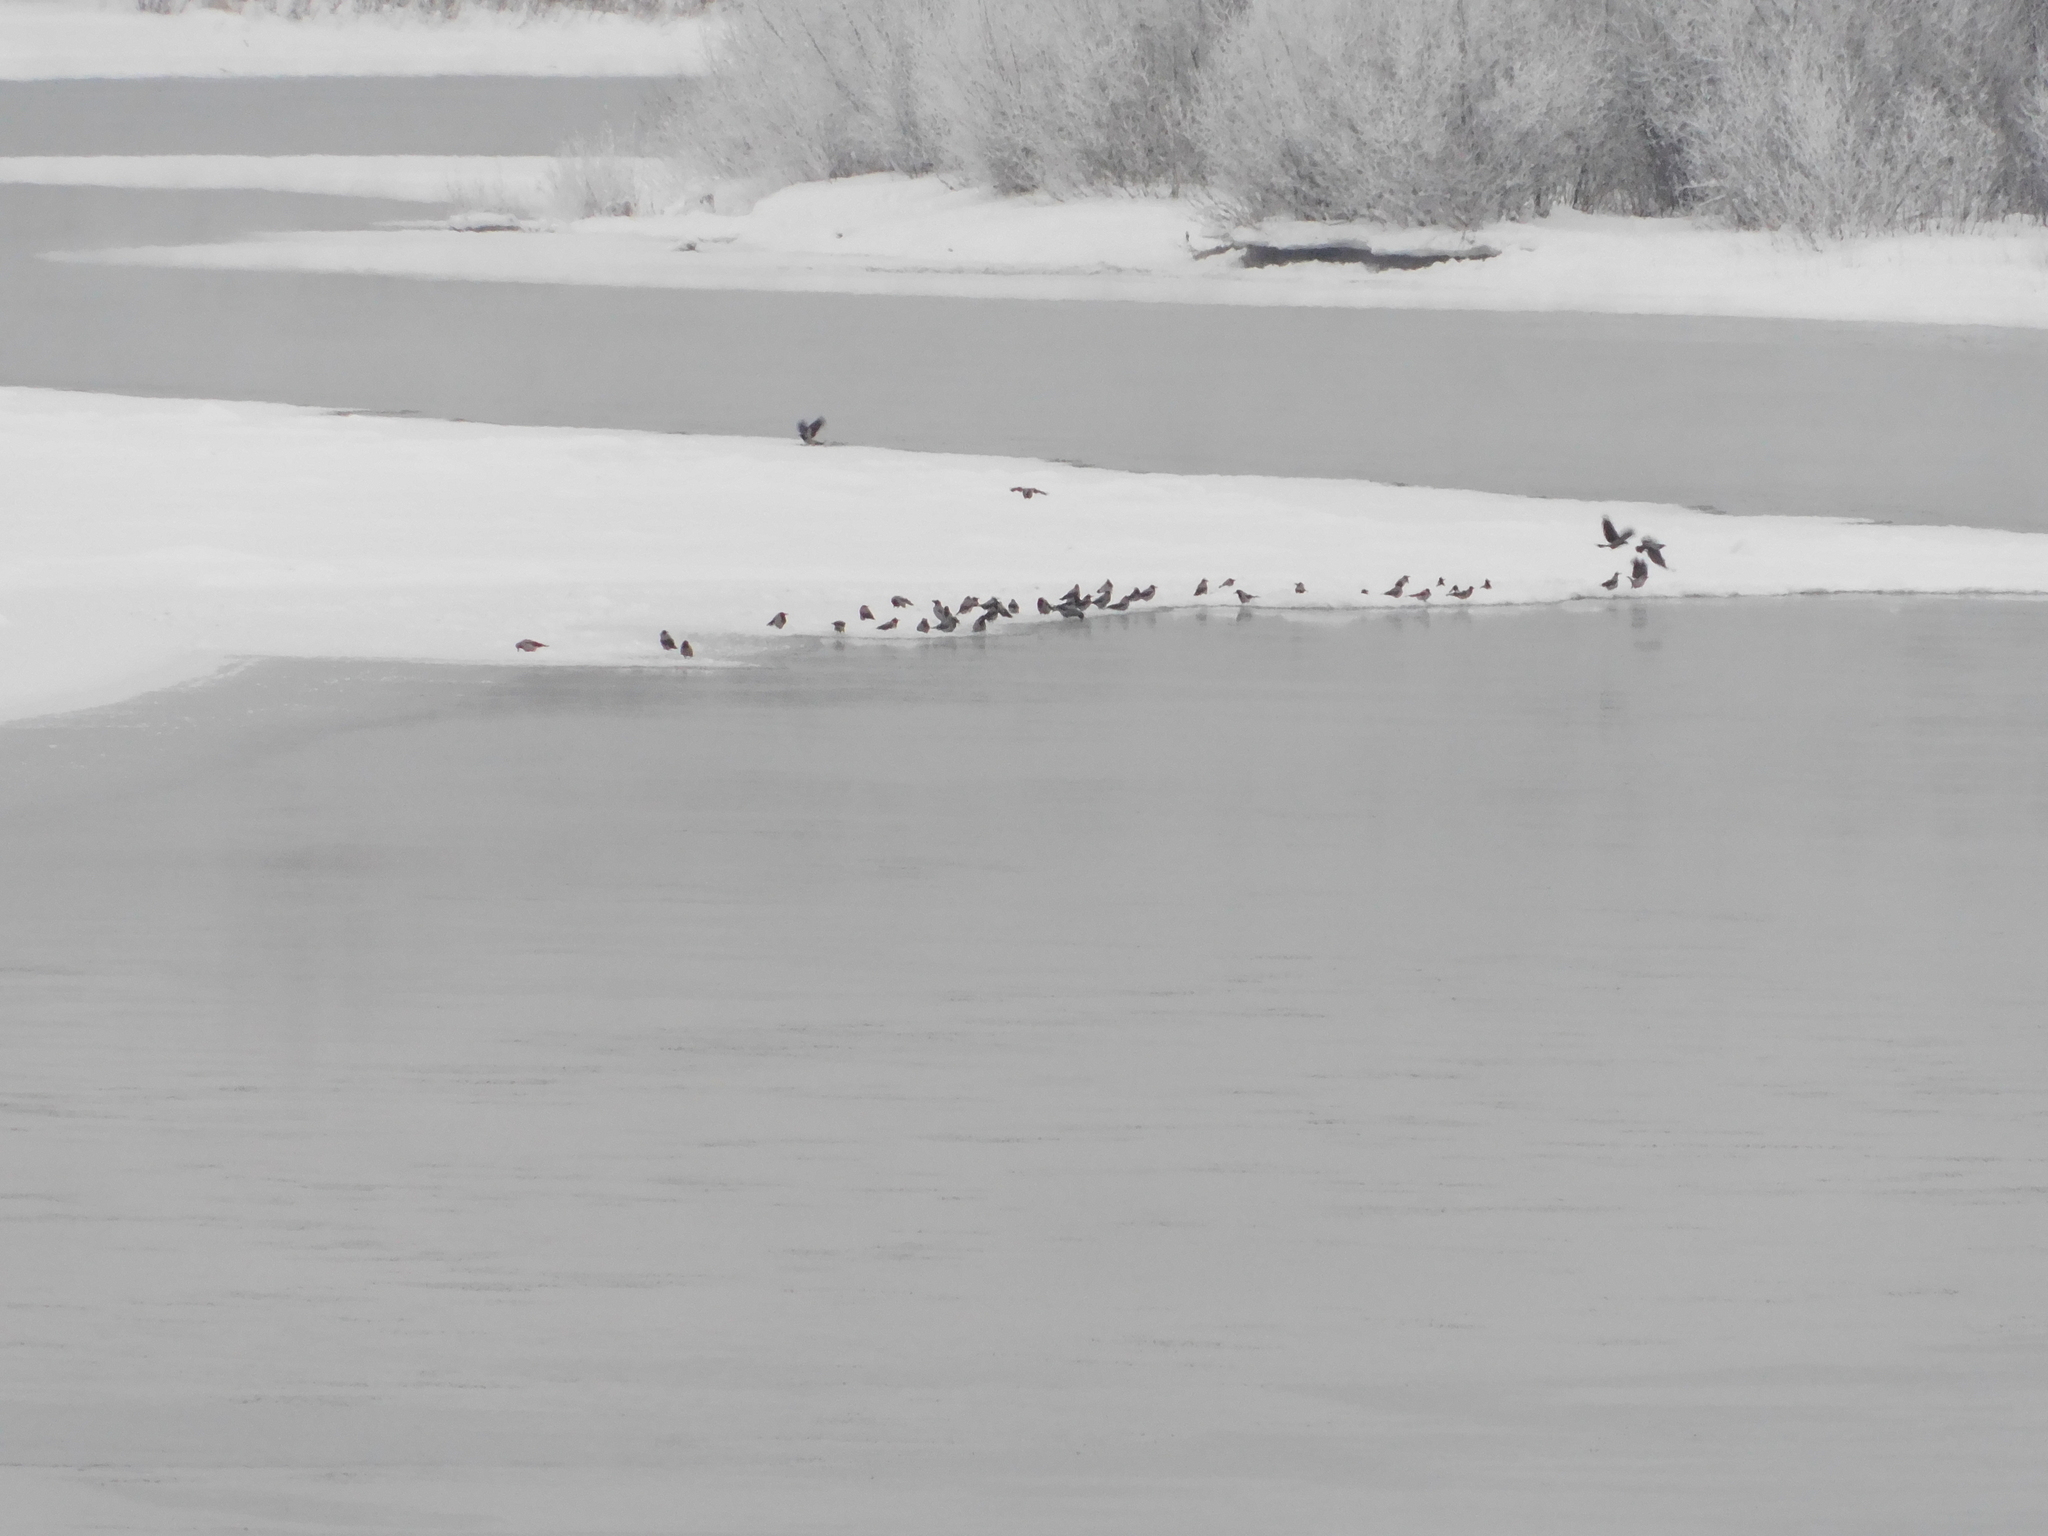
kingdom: Animalia
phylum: Chordata
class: Aves
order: Passeriformes
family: Corvidae
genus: Corvus
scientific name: Corvus cornix
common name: Hooded crow
